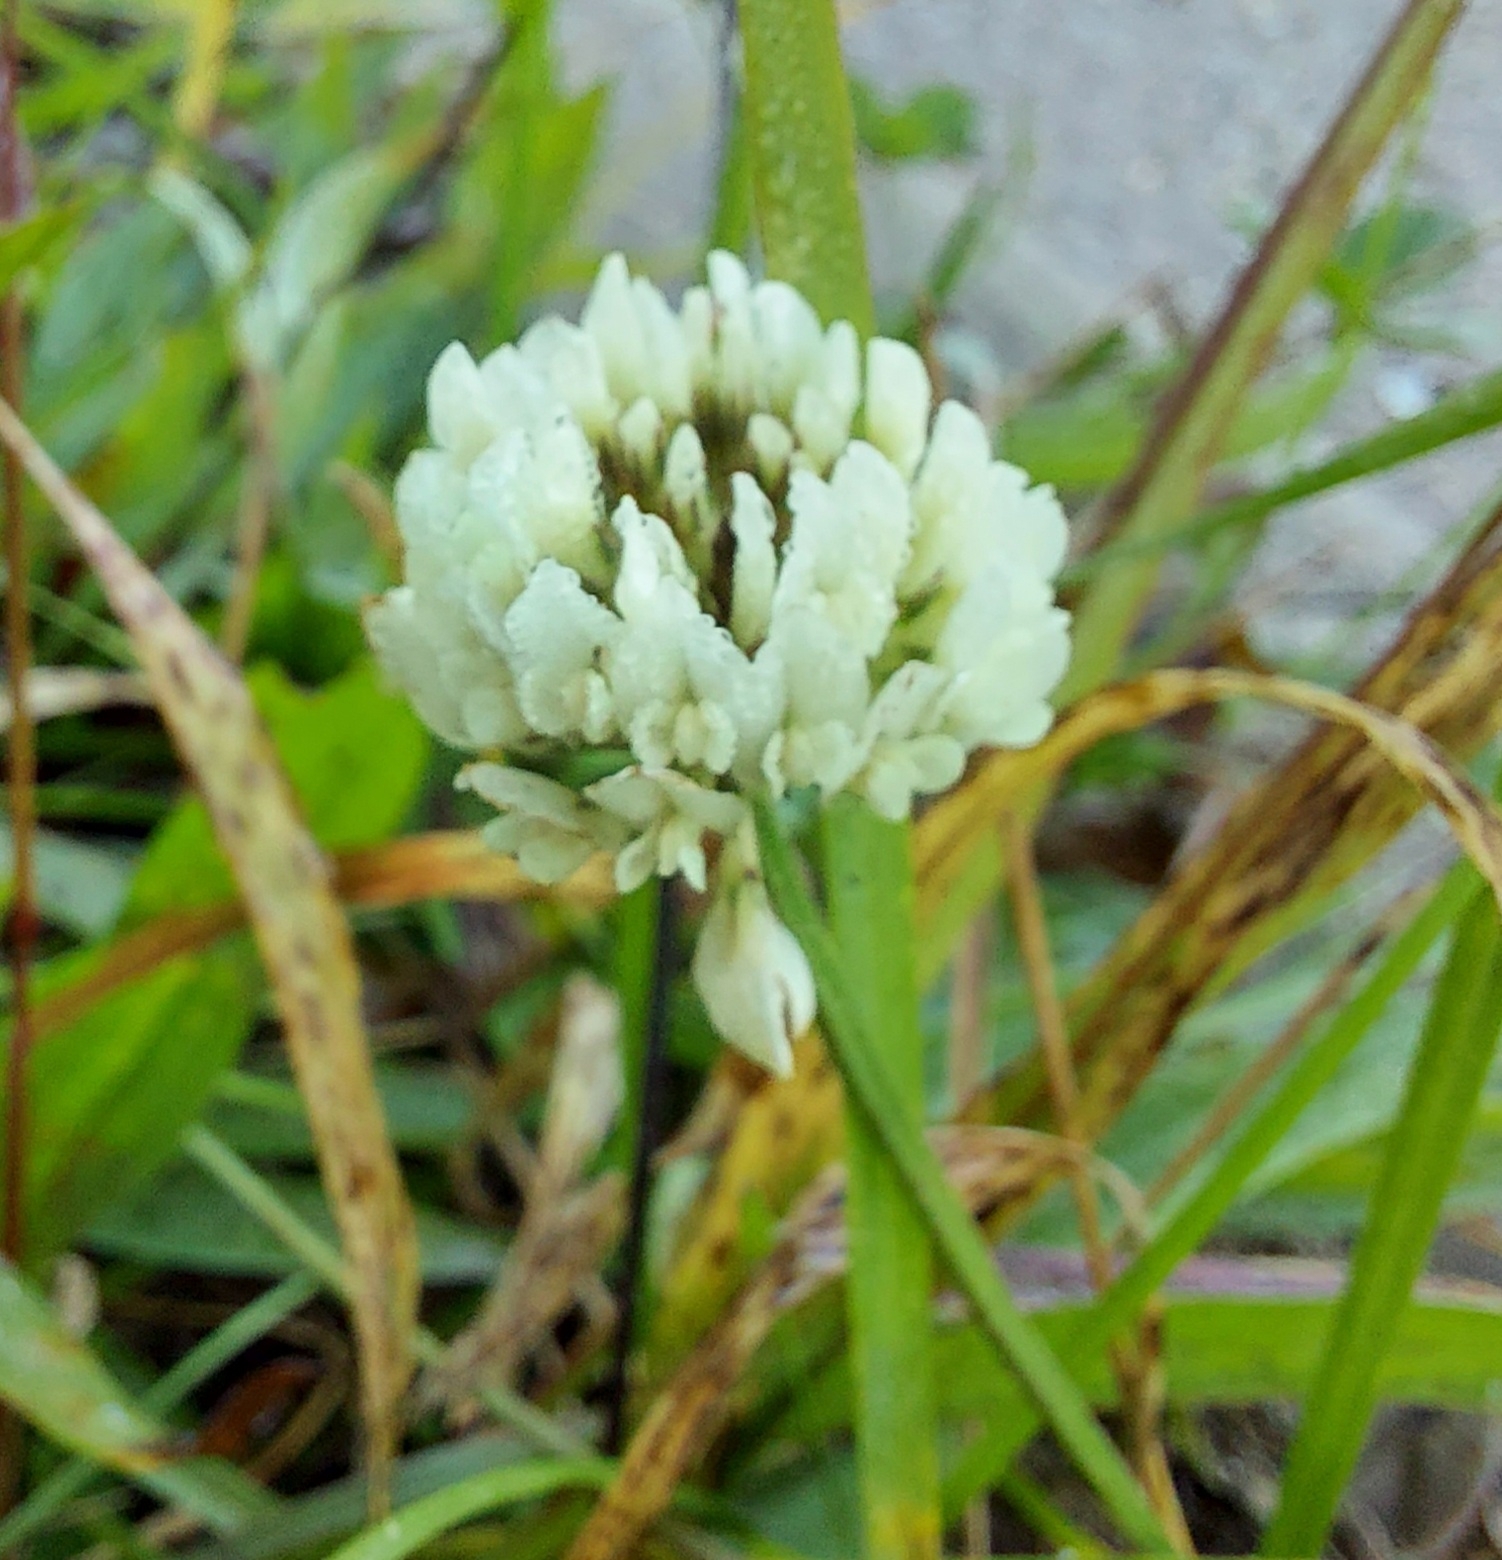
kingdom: Plantae
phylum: Tracheophyta
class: Magnoliopsida
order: Fabales
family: Fabaceae
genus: Trifolium
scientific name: Trifolium repens
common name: White clover
